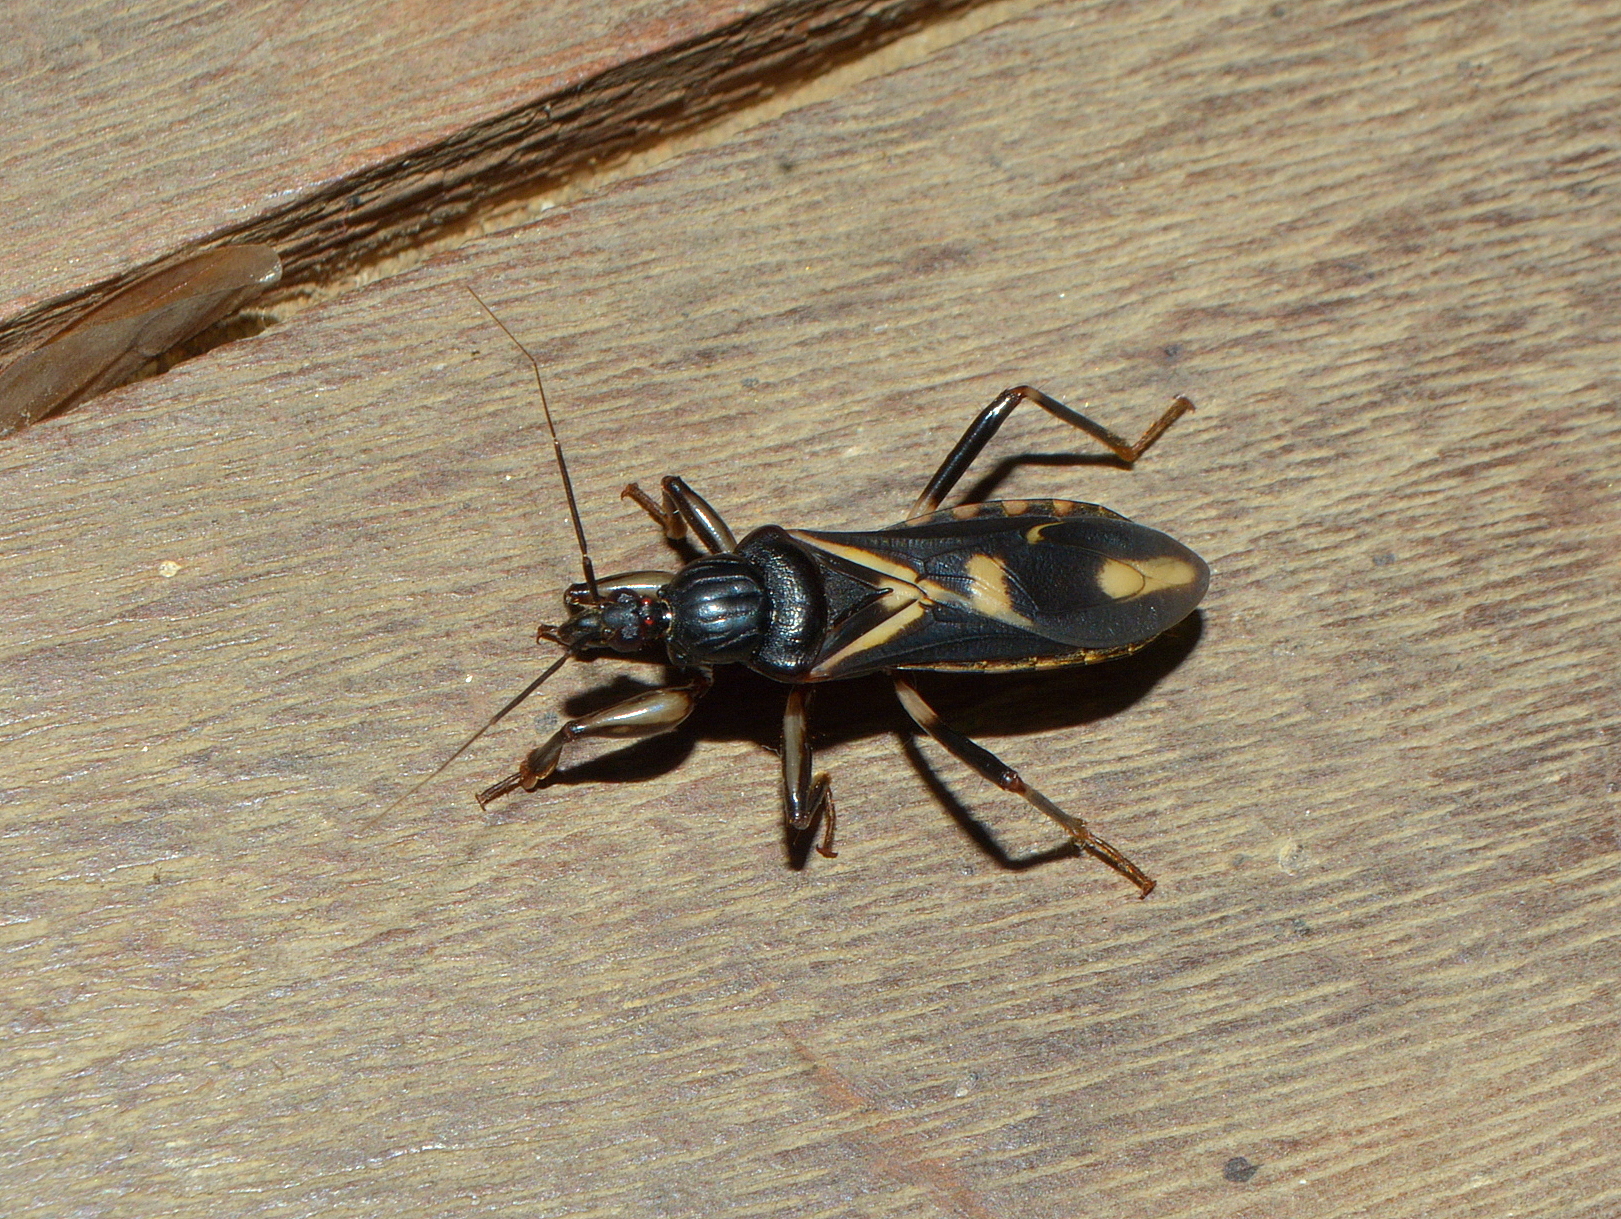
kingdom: Animalia
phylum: Arthropoda
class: Insecta
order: Hemiptera
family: Reduviidae
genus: Rasahus
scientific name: Rasahus sulcicollis
